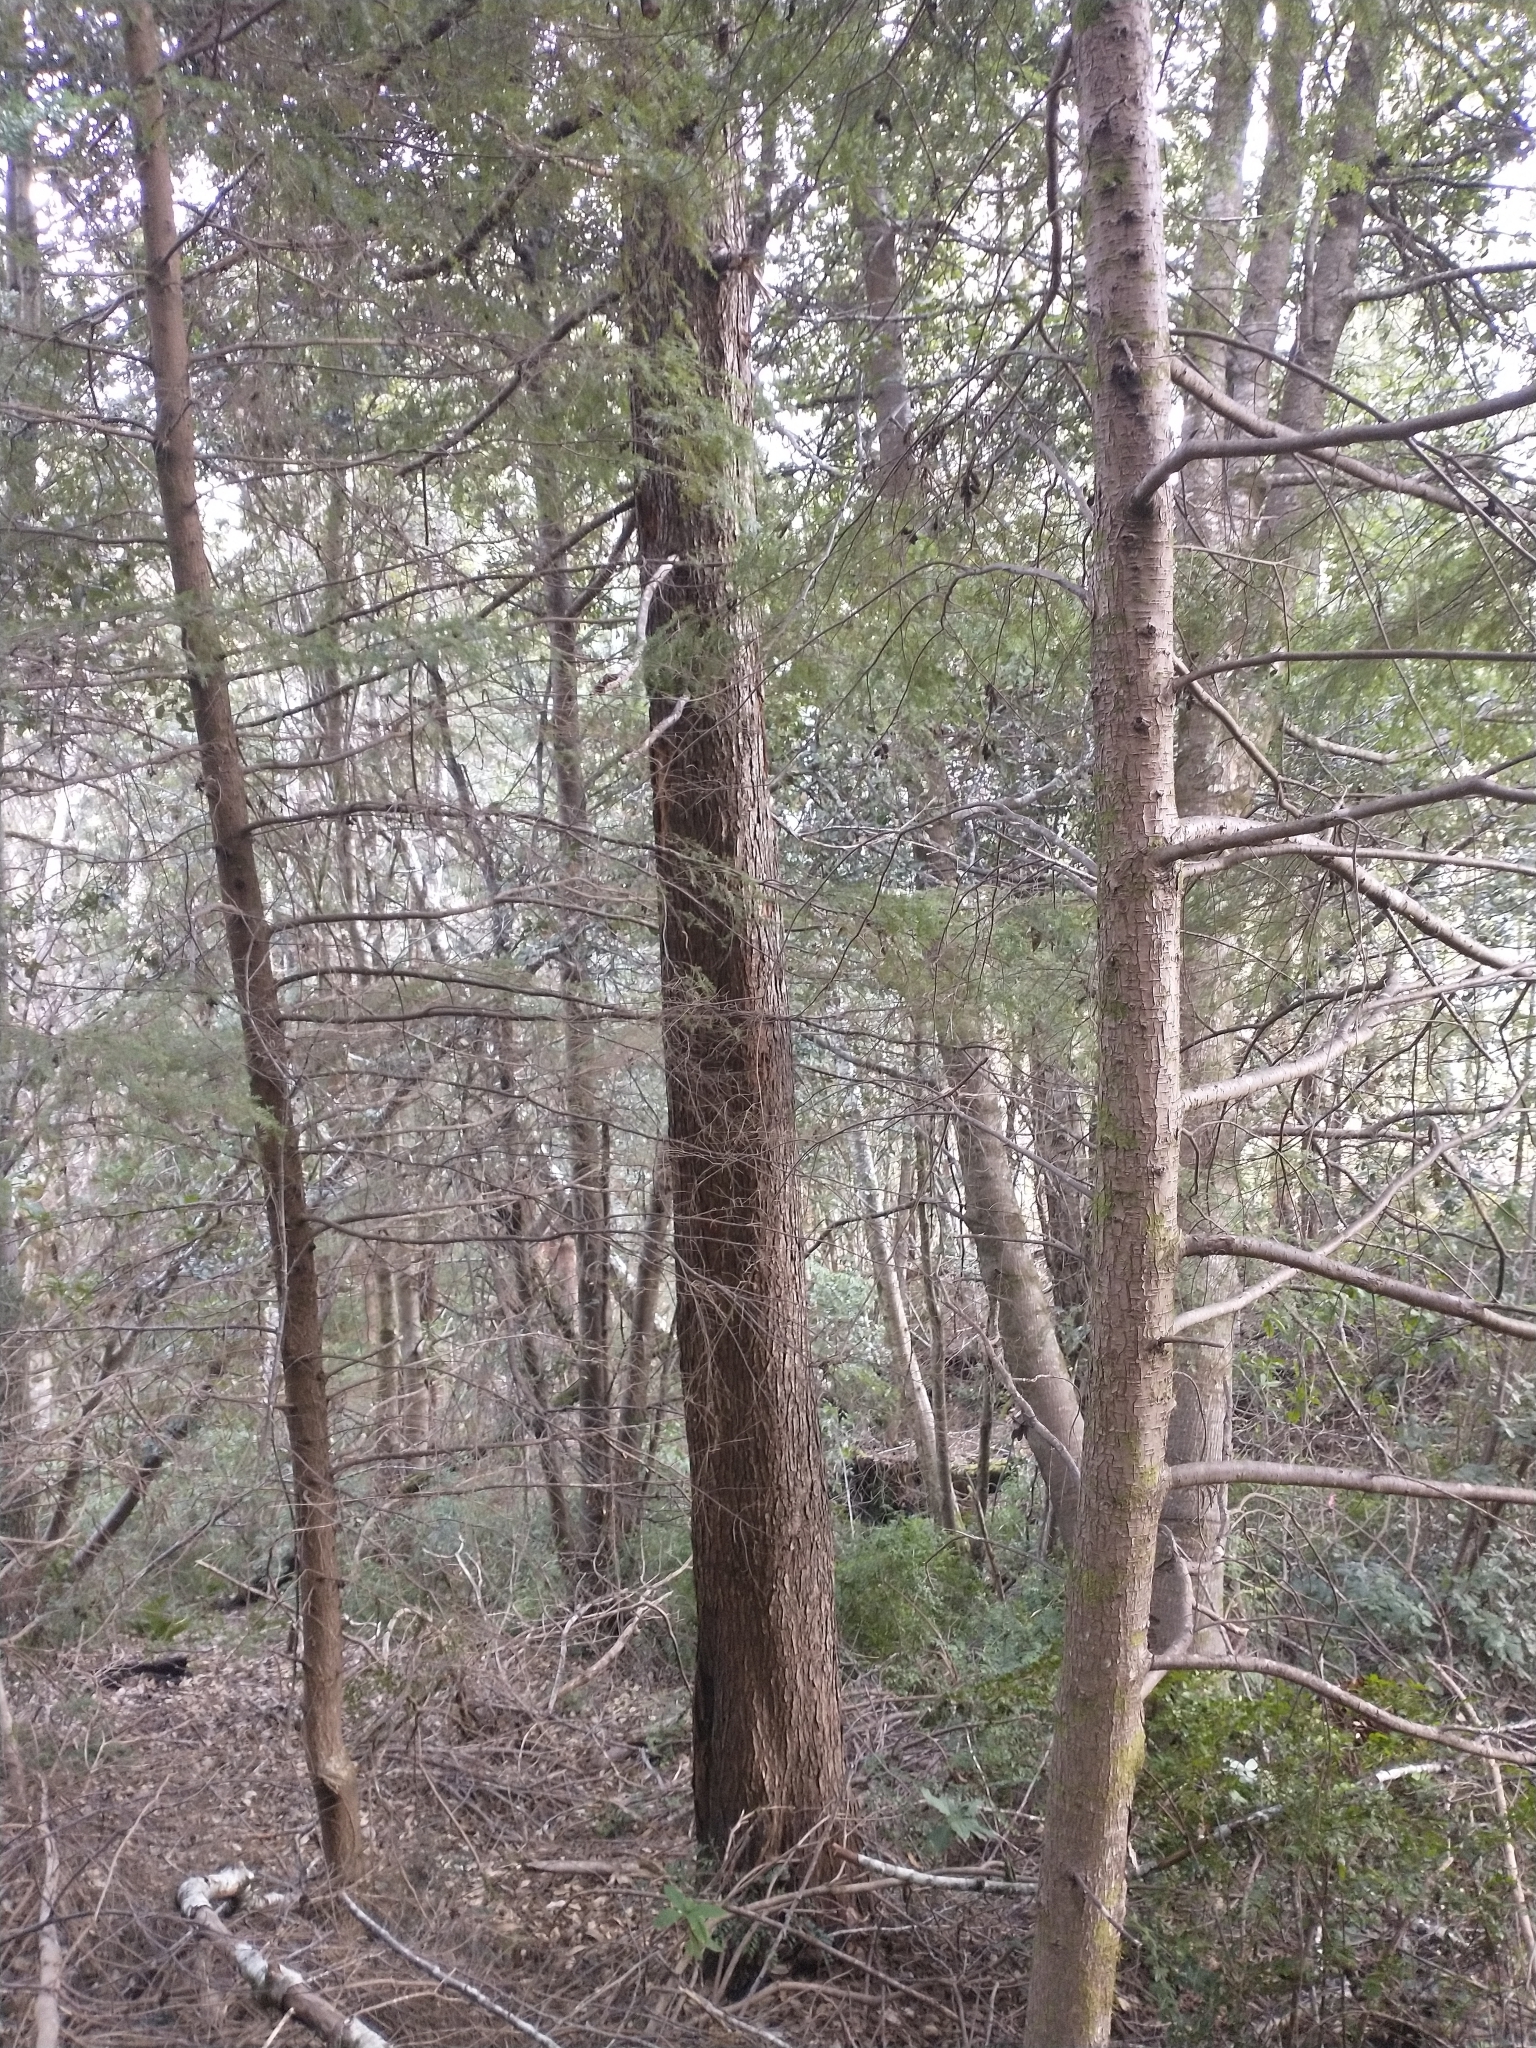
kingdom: Plantae
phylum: Tracheophyta
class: Pinopsida
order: Pinales
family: Pinaceae
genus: Tsuga
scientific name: Tsuga heterophylla
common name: Western hemlock
